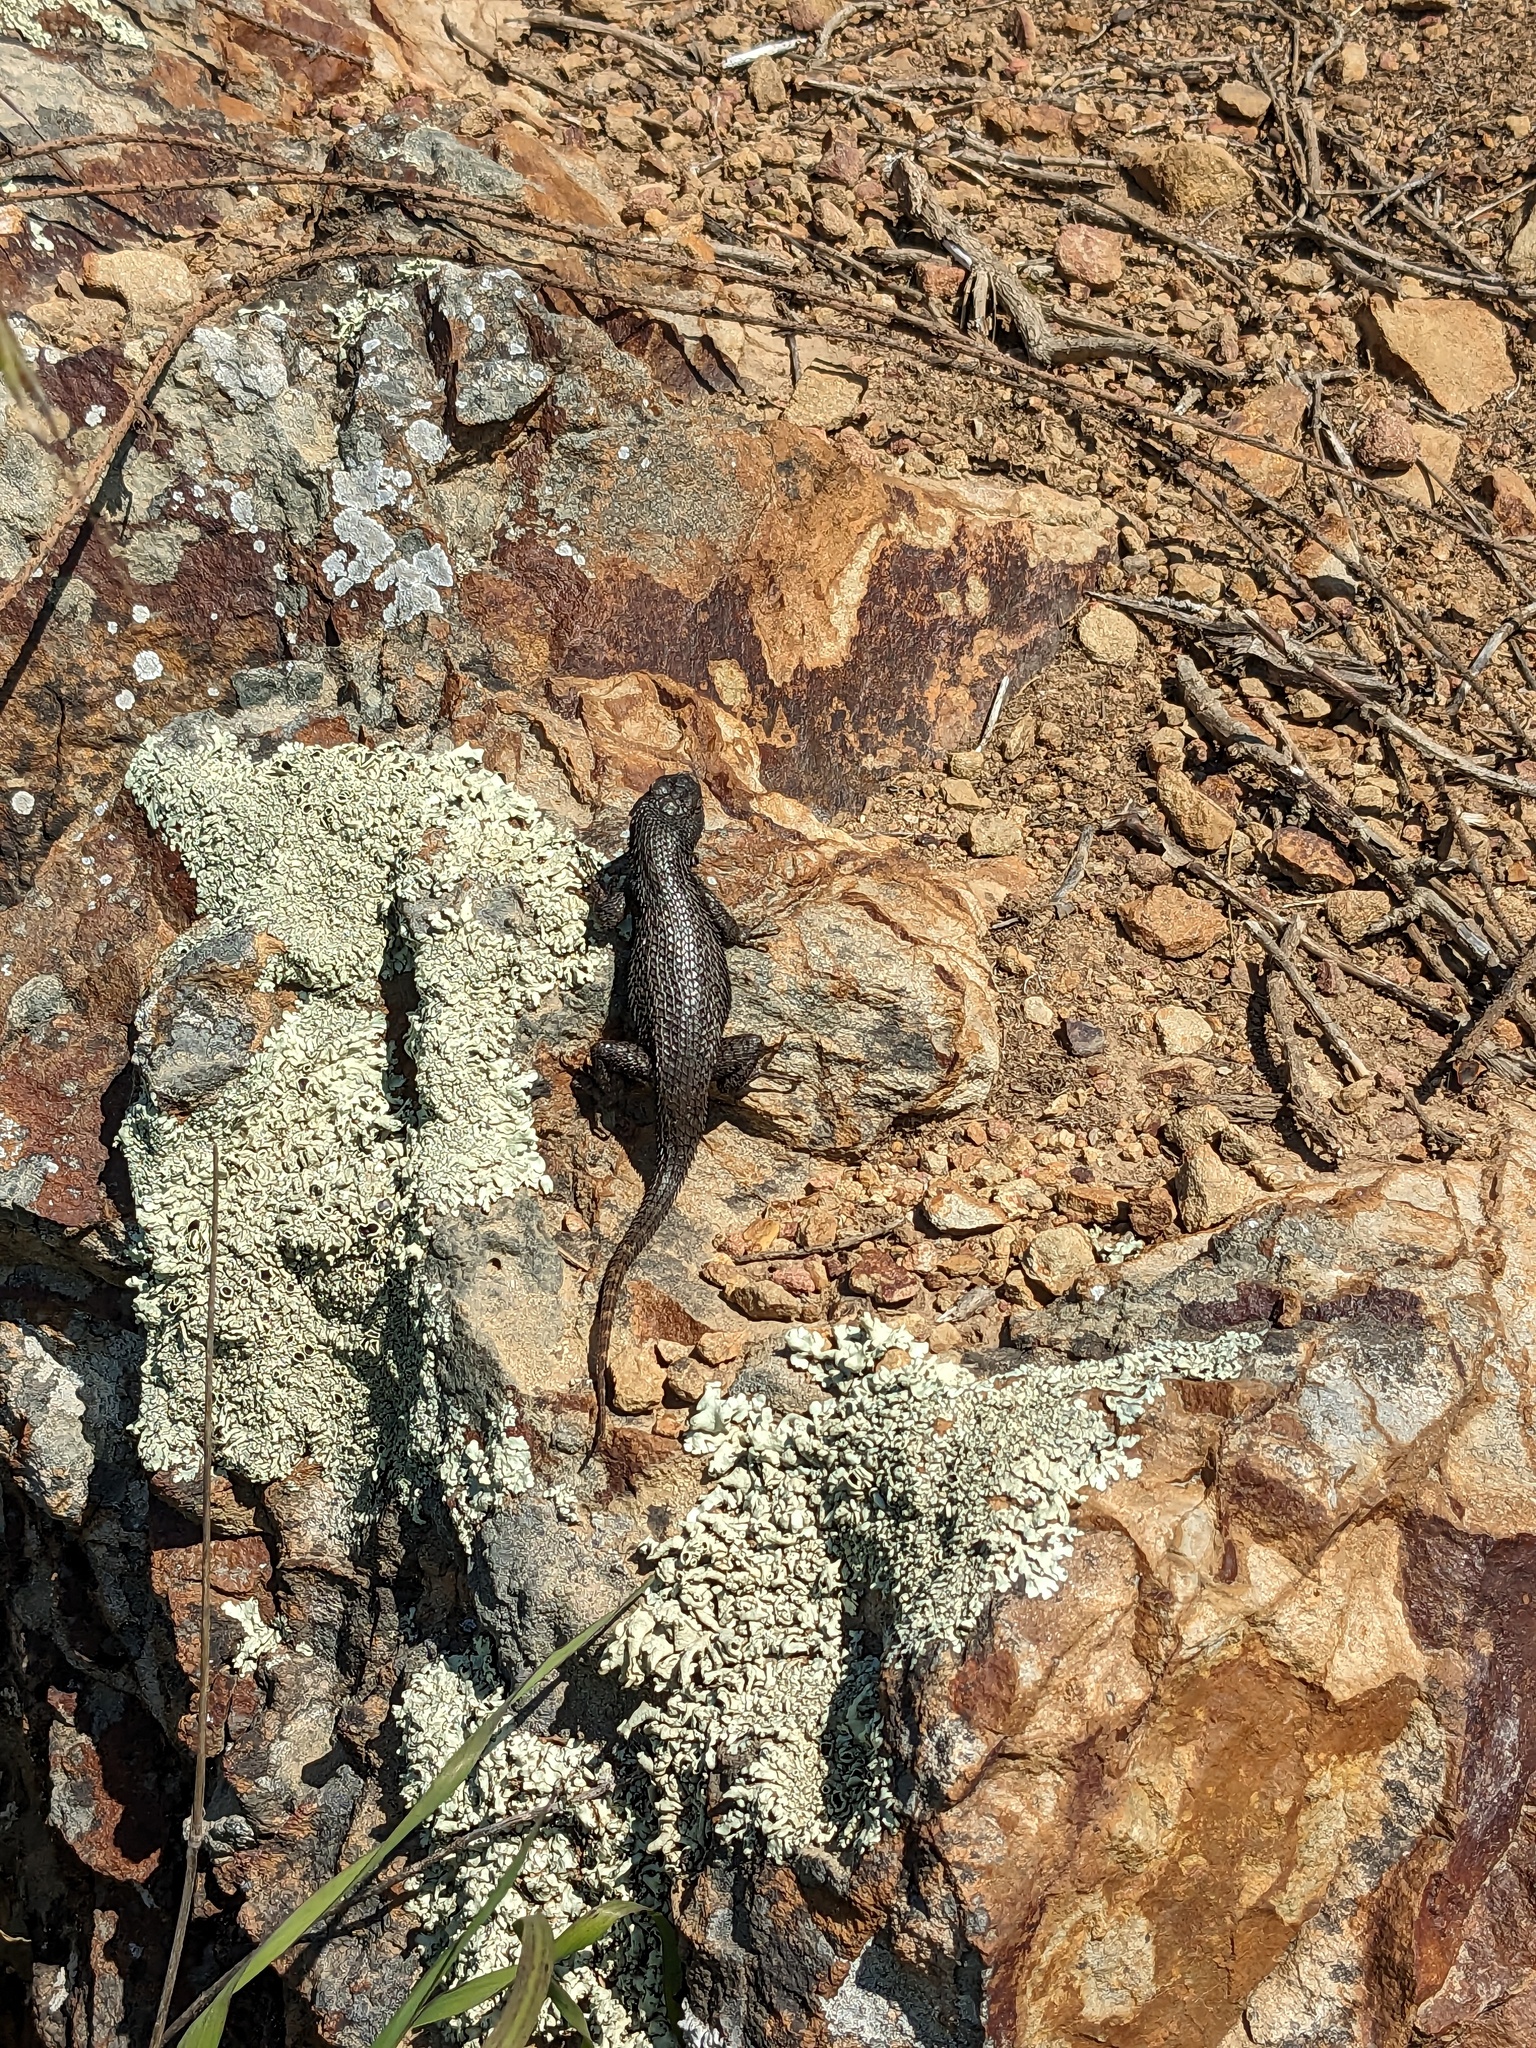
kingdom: Animalia
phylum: Chordata
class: Squamata
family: Phrynosomatidae
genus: Sceloporus
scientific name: Sceloporus occidentalis
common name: Western fence lizard
